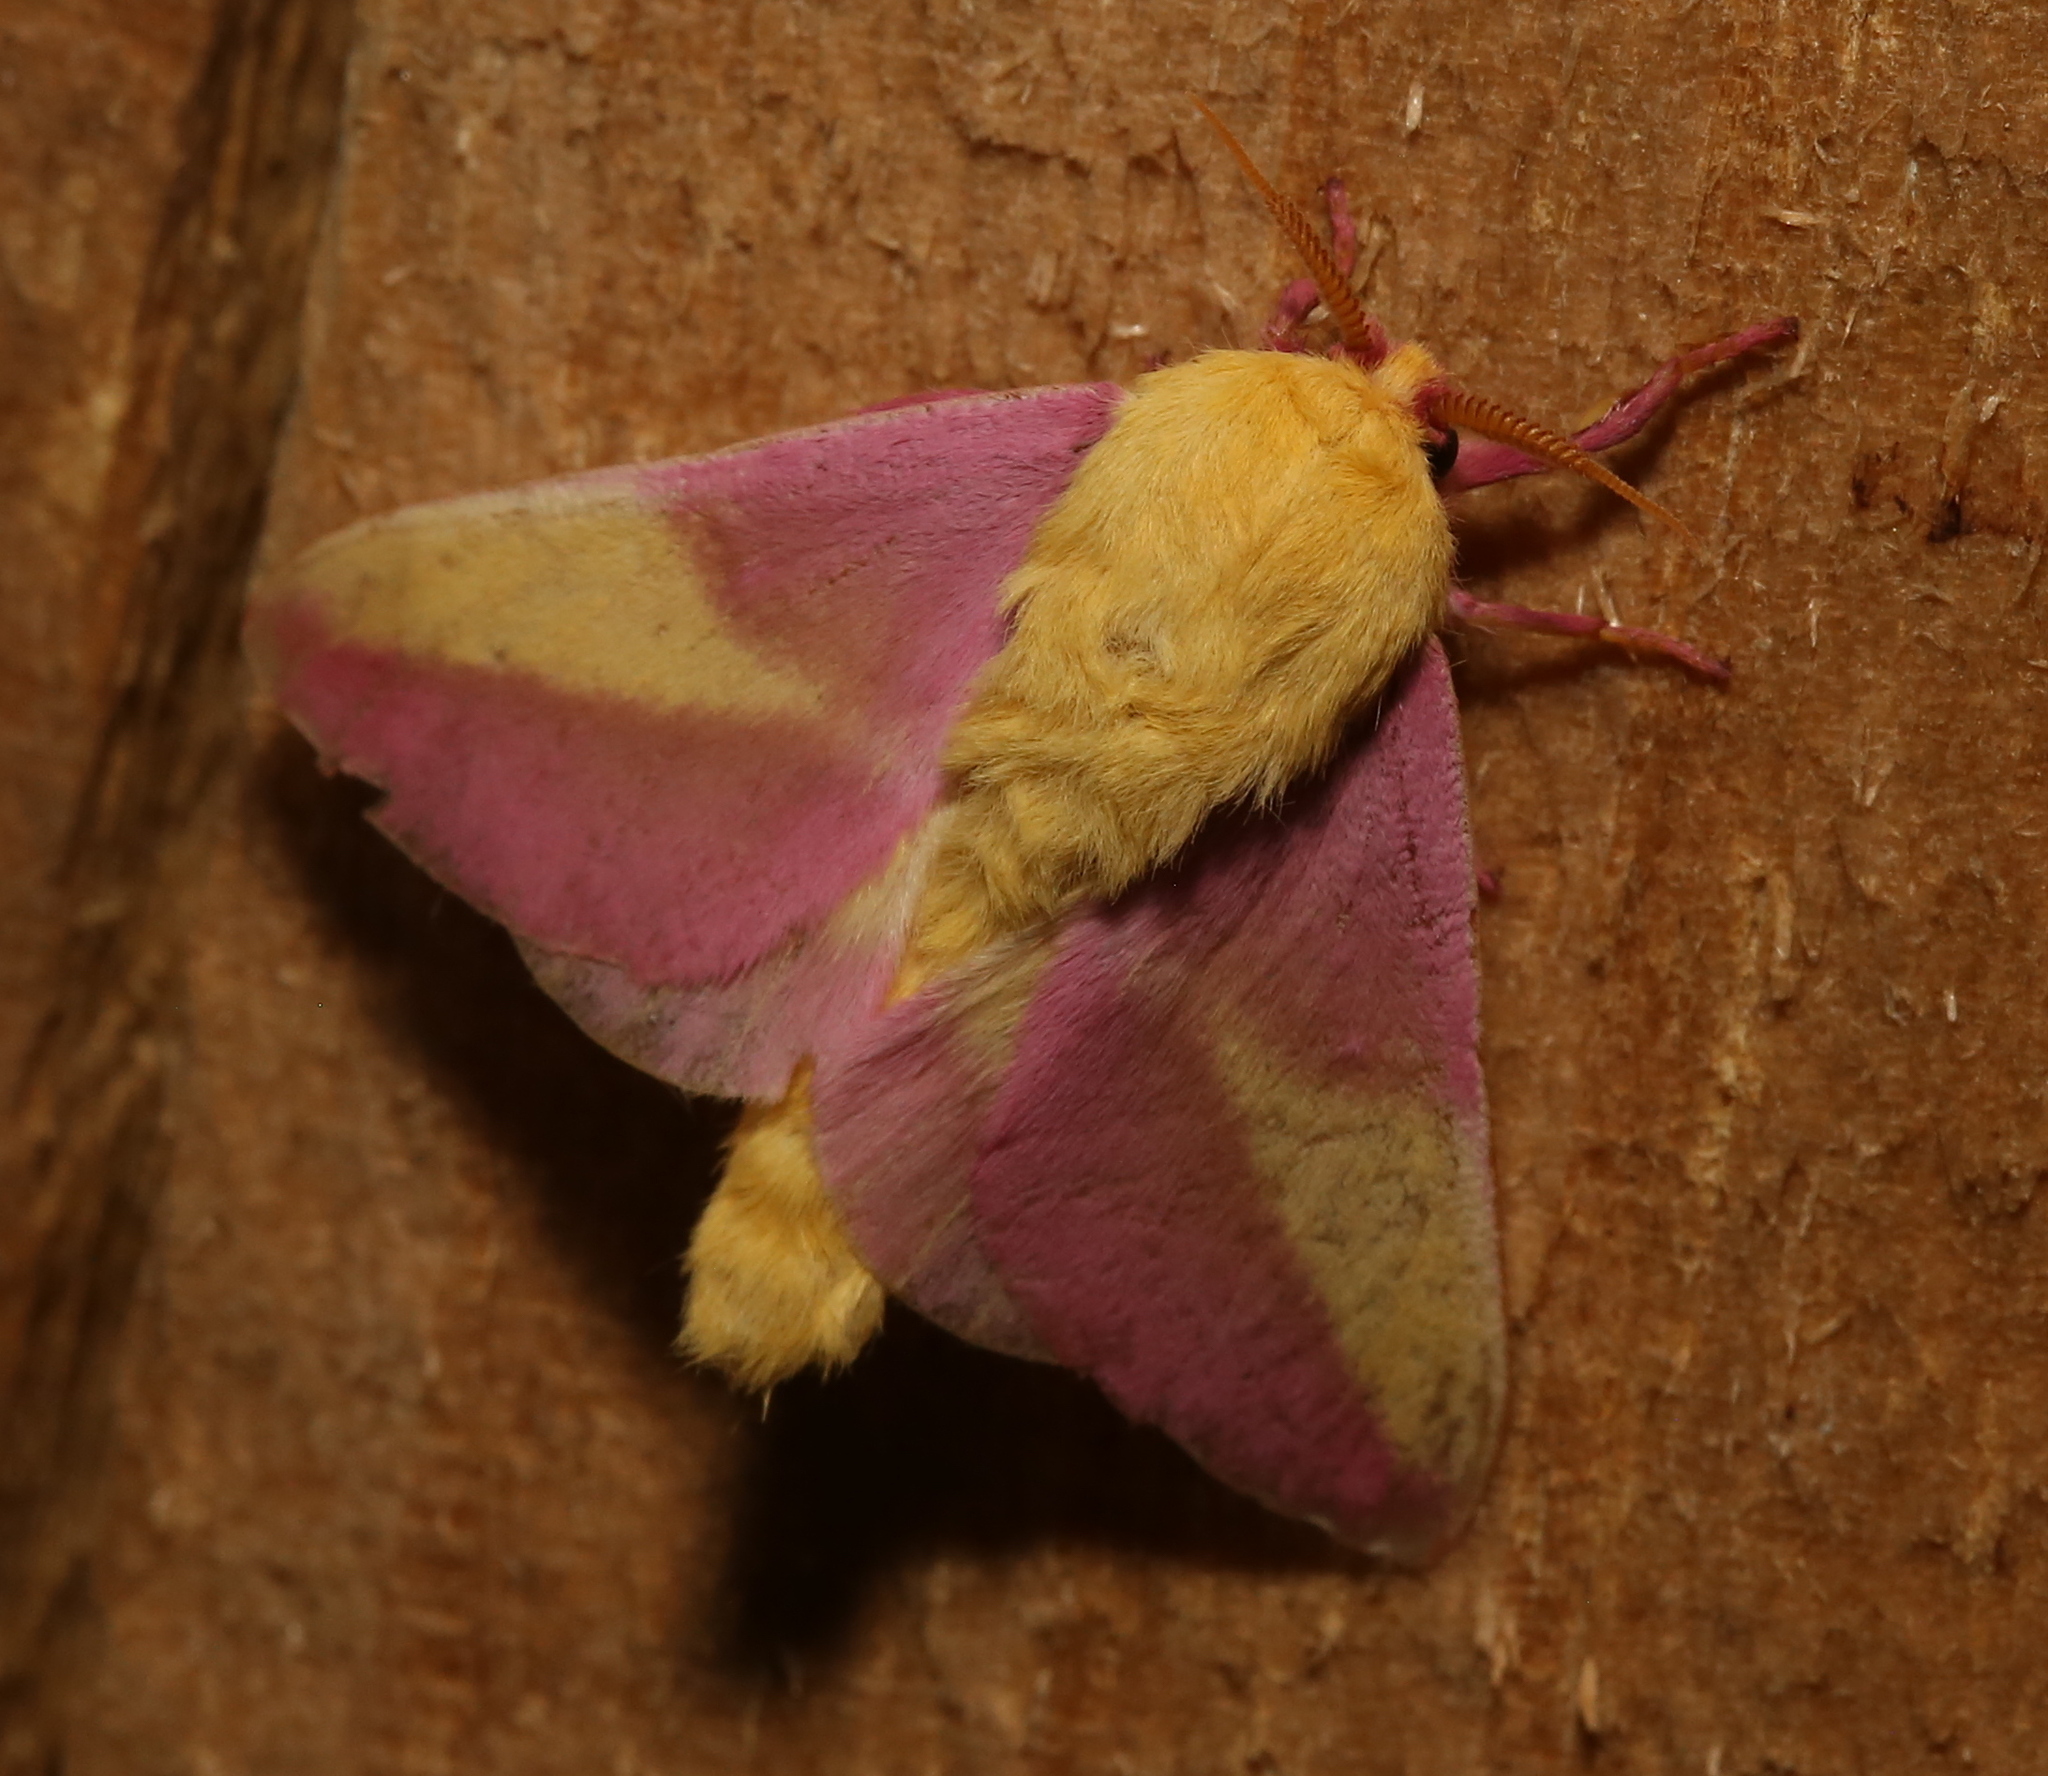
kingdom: Animalia
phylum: Arthropoda
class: Insecta
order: Lepidoptera
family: Saturniidae
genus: Dryocampa
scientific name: Dryocampa rubicunda
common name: Rosy maple moth
